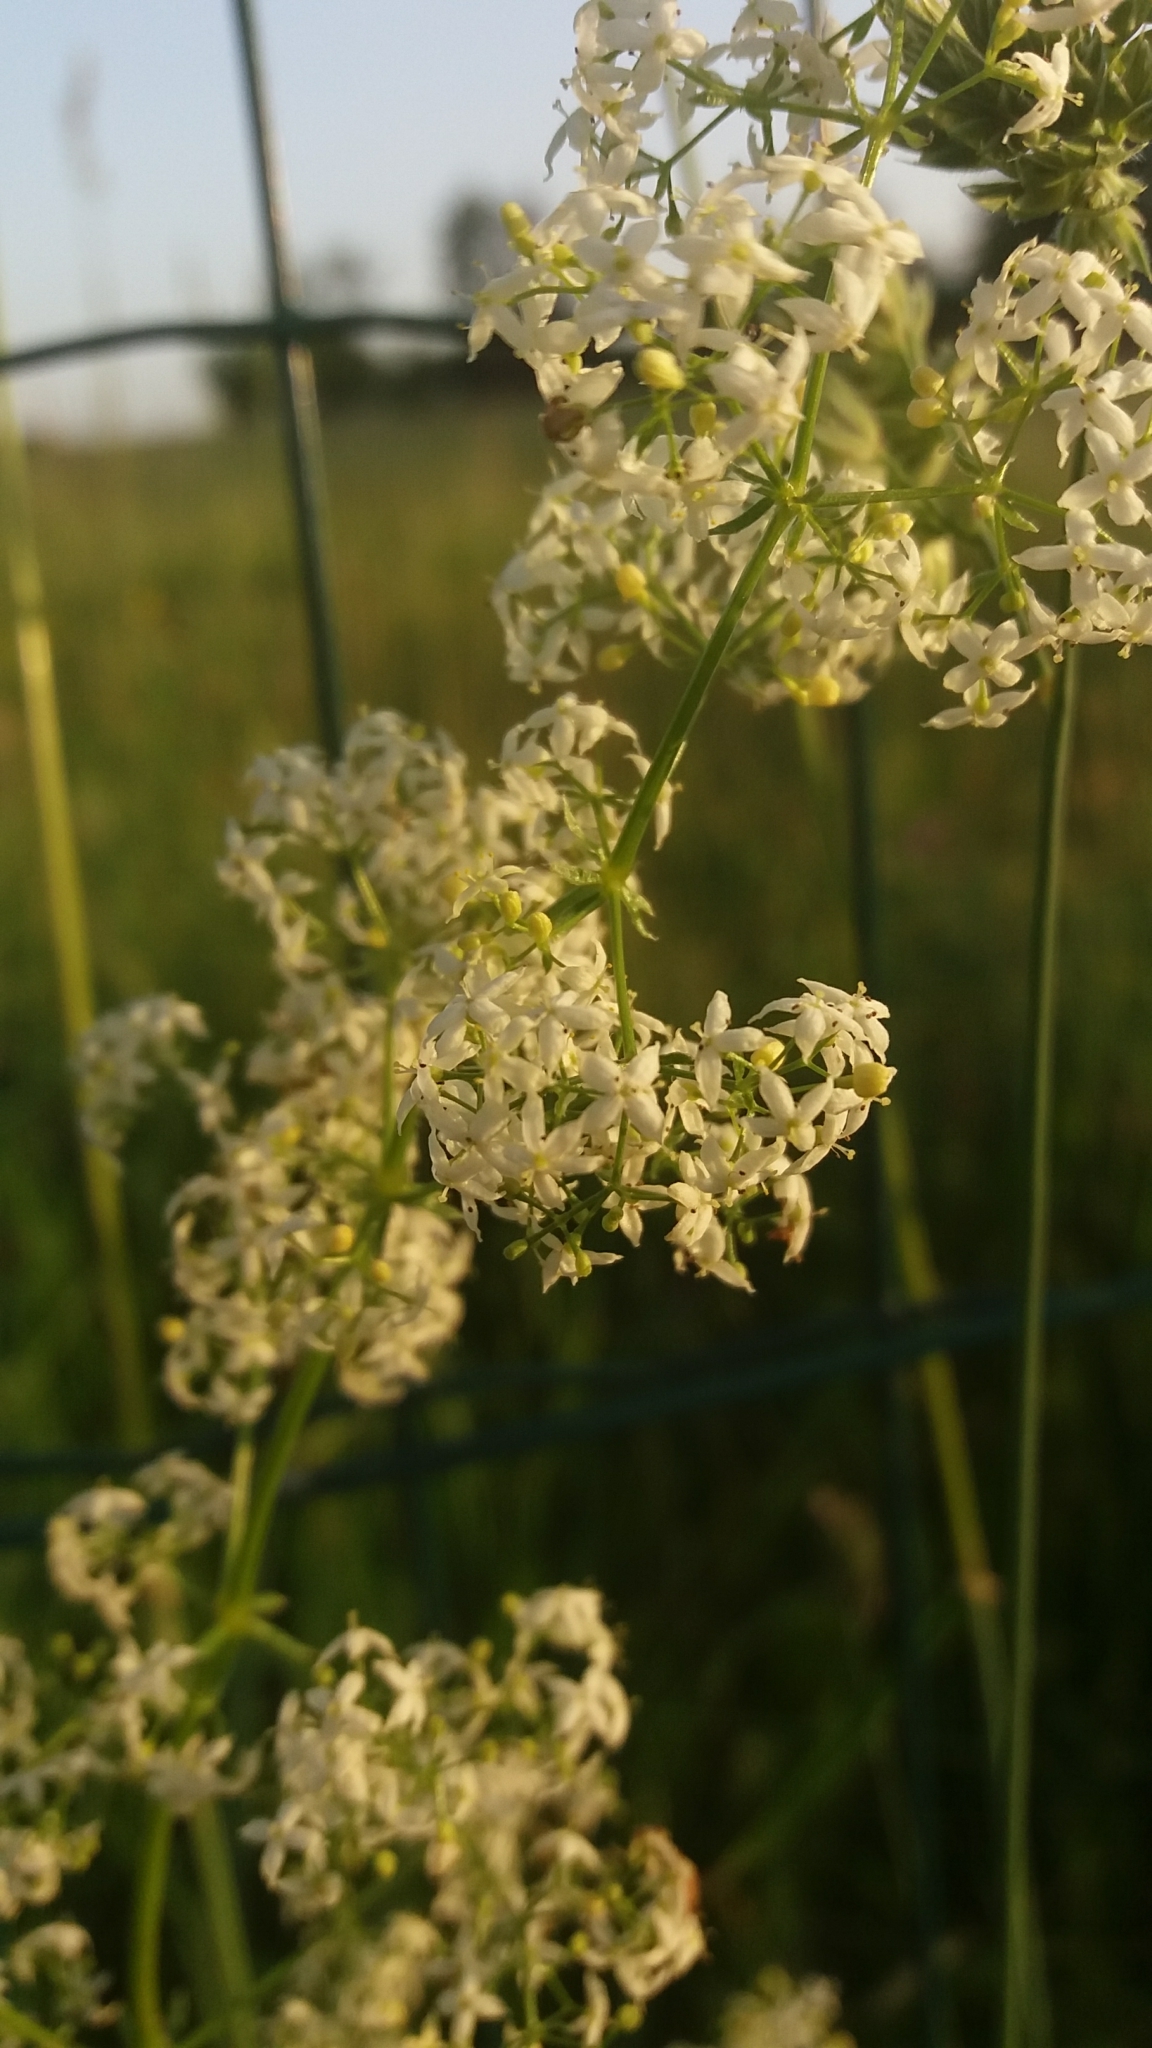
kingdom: Plantae
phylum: Tracheophyta
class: Magnoliopsida
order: Gentianales
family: Rubiaceae
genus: Galium
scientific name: Galium
